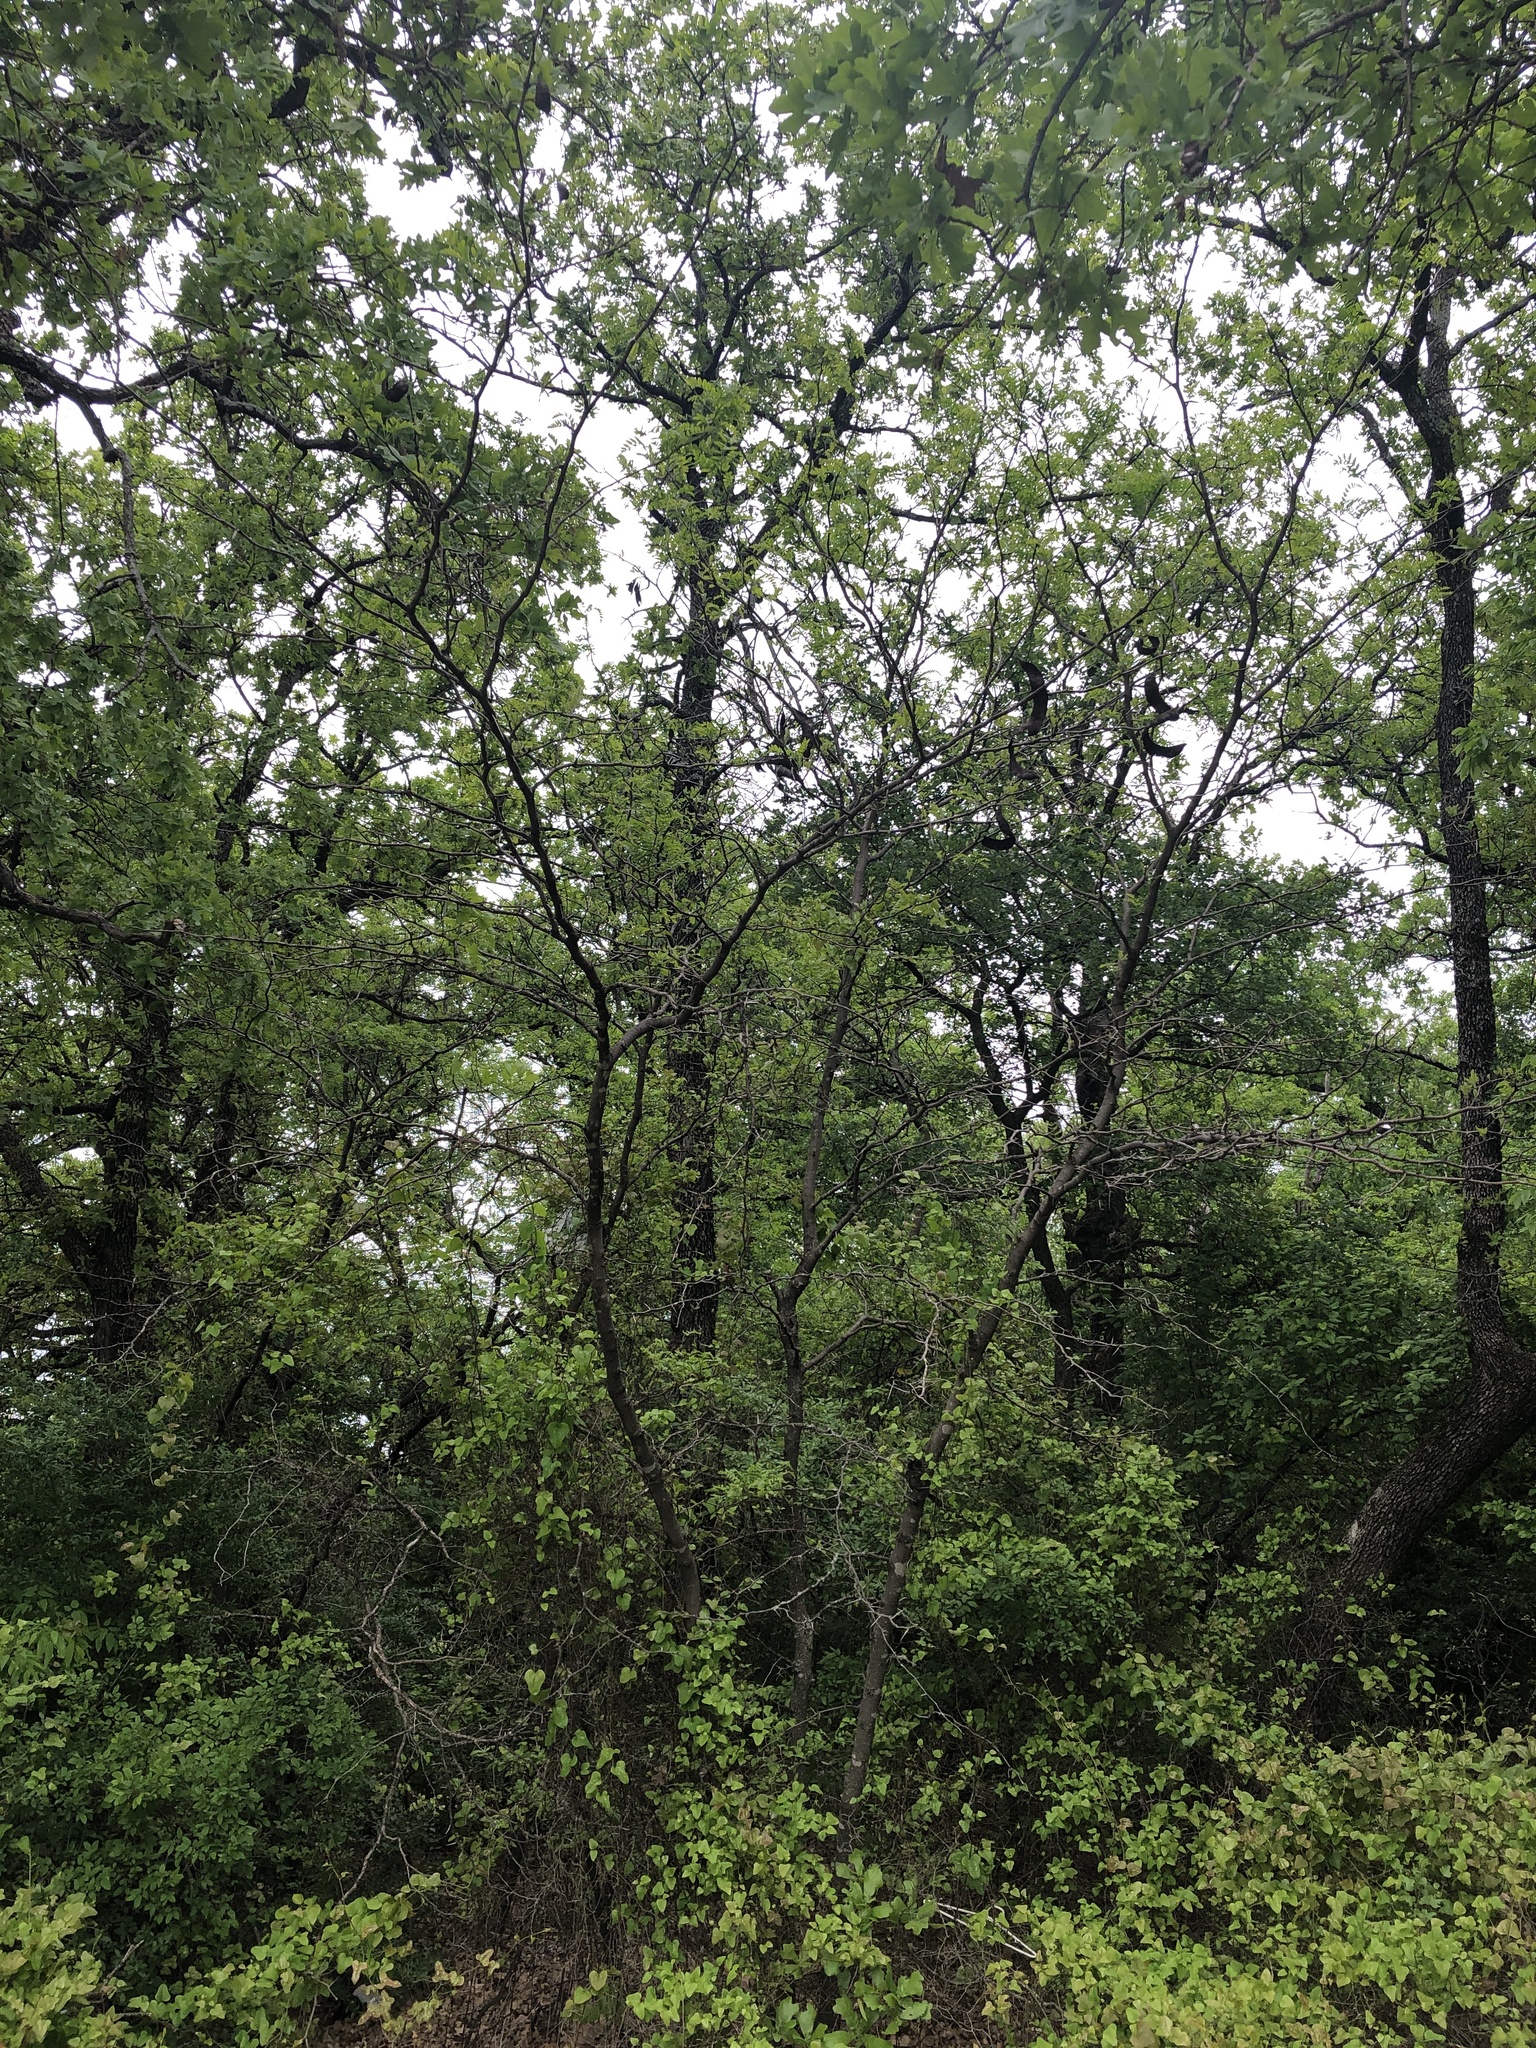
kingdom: Plantae
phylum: Tracheophyta
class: Magnoliopsida
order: Fabales
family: Fabaceae
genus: Gleditsia
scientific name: Gleditsia triacanthos
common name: Common honeylocust
